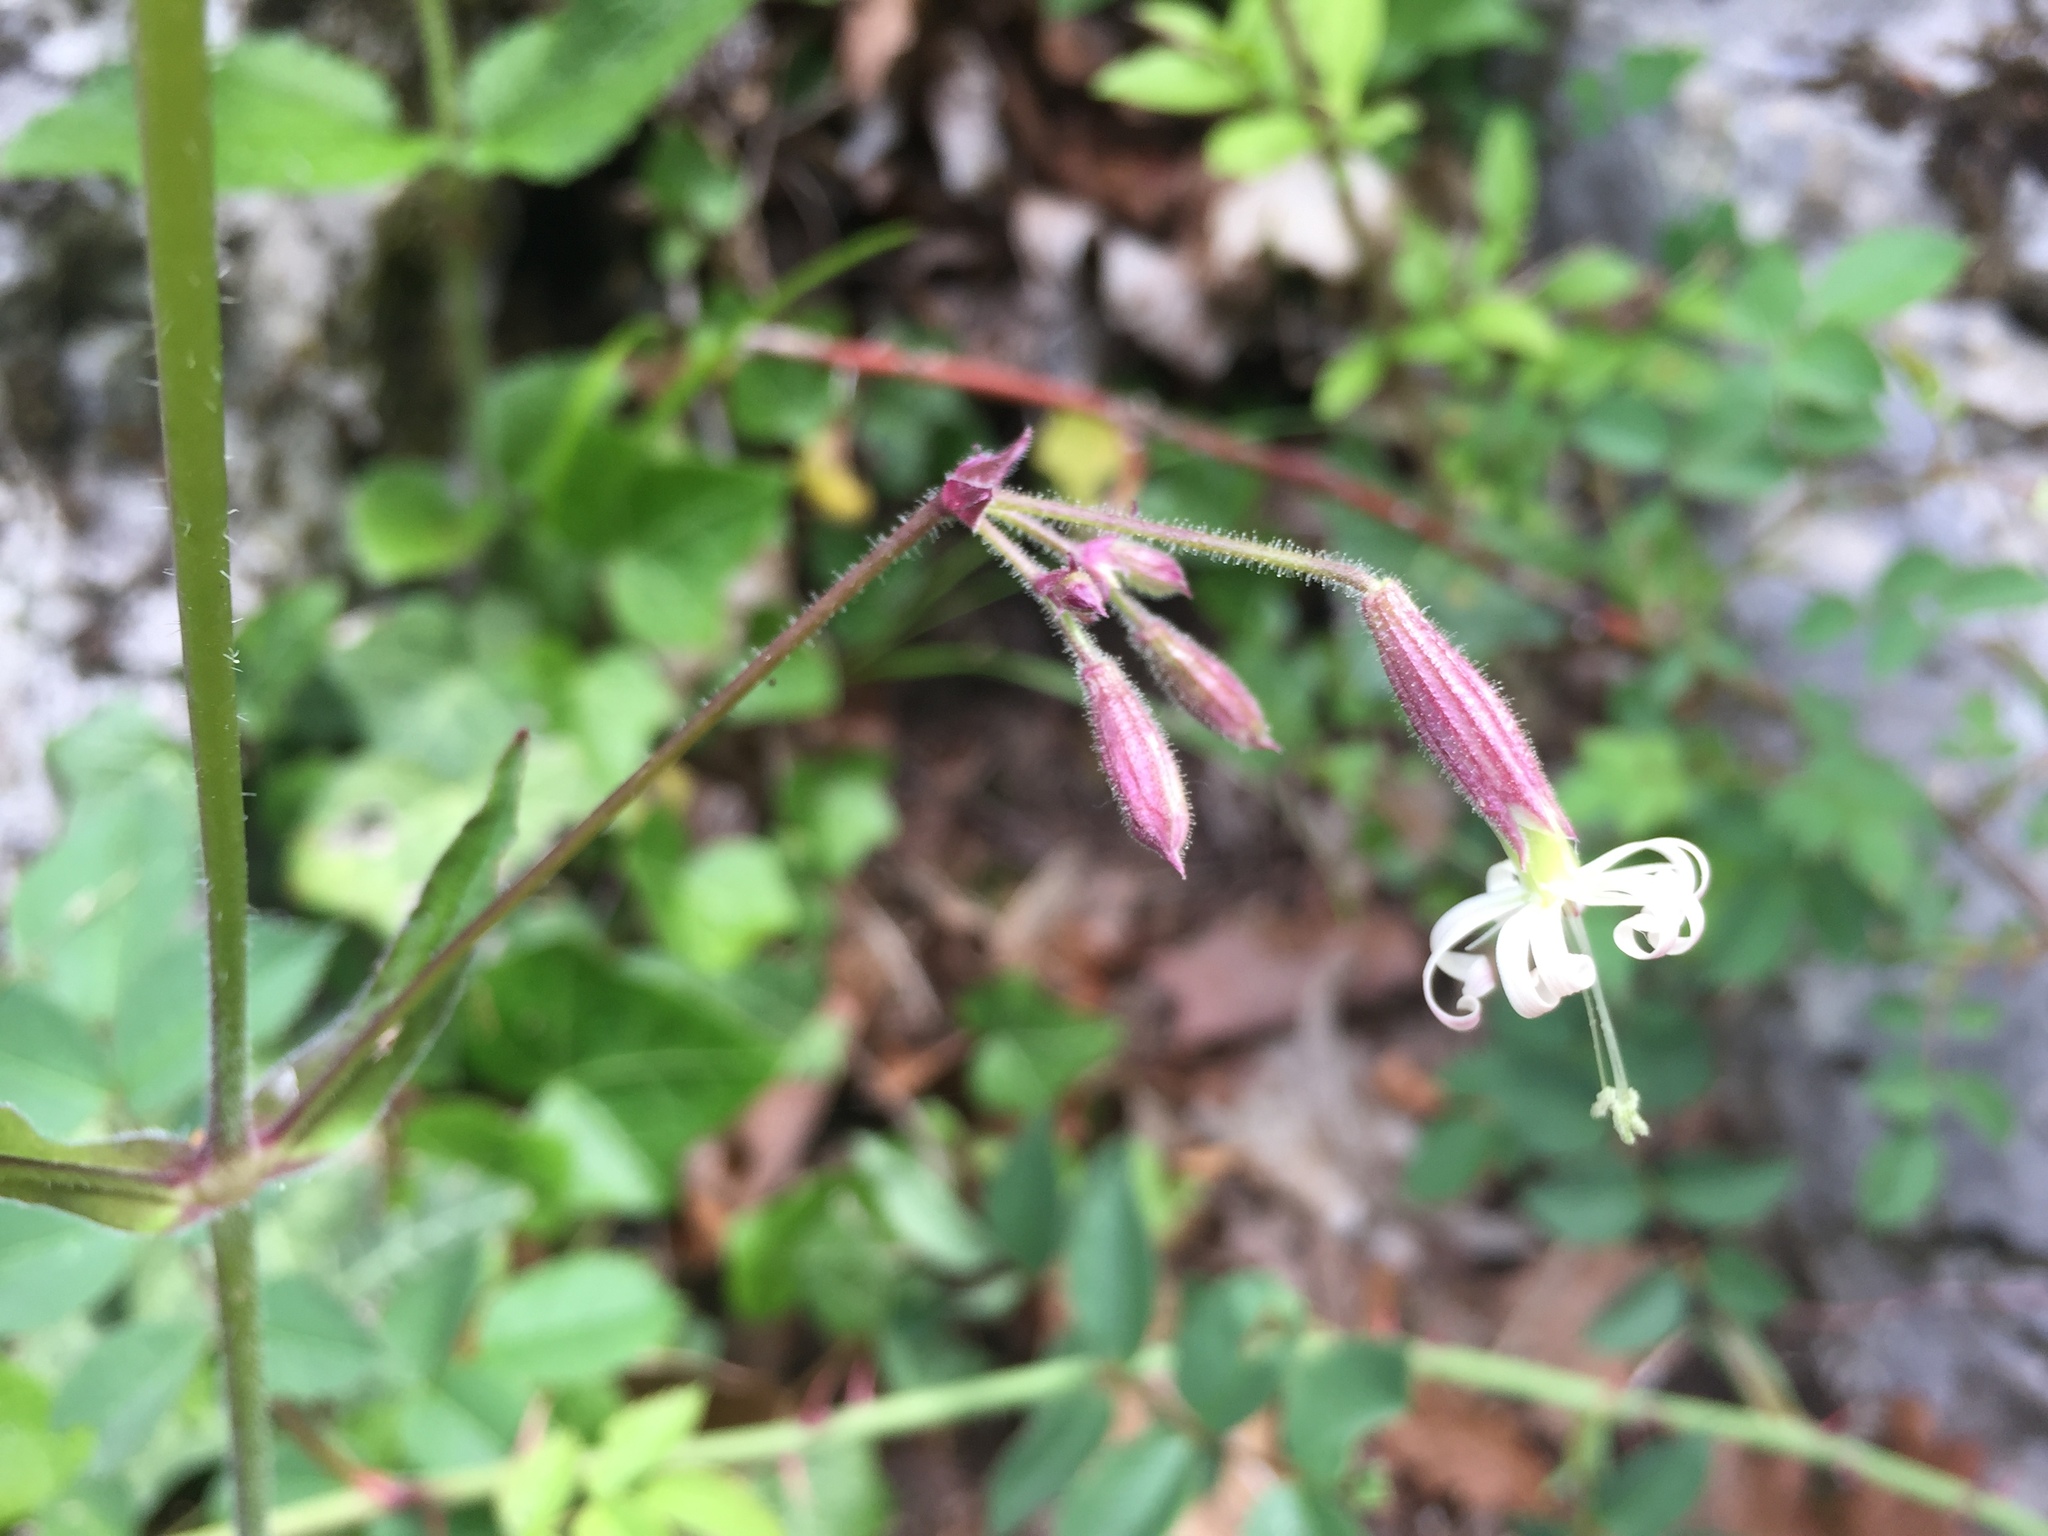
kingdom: Plantae
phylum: Tracheophyta
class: Magnoliopsida
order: Caryophyllales
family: Caryophyllaceae
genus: Silene
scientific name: Silene nutans
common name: Nottingham catchfly
